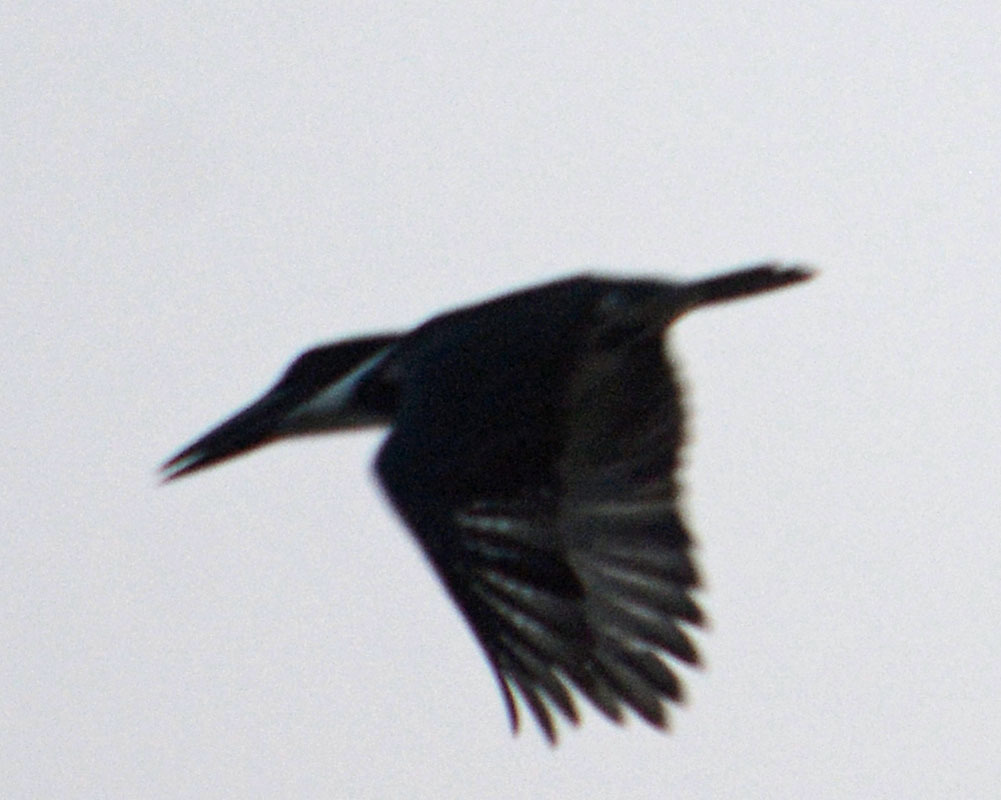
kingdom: Animalia
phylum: Chordata
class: Aves
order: Coraciiformes
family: Alcedinidae
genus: Megaceryle
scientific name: Megaceryle torquata
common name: Ringed kingfisher
